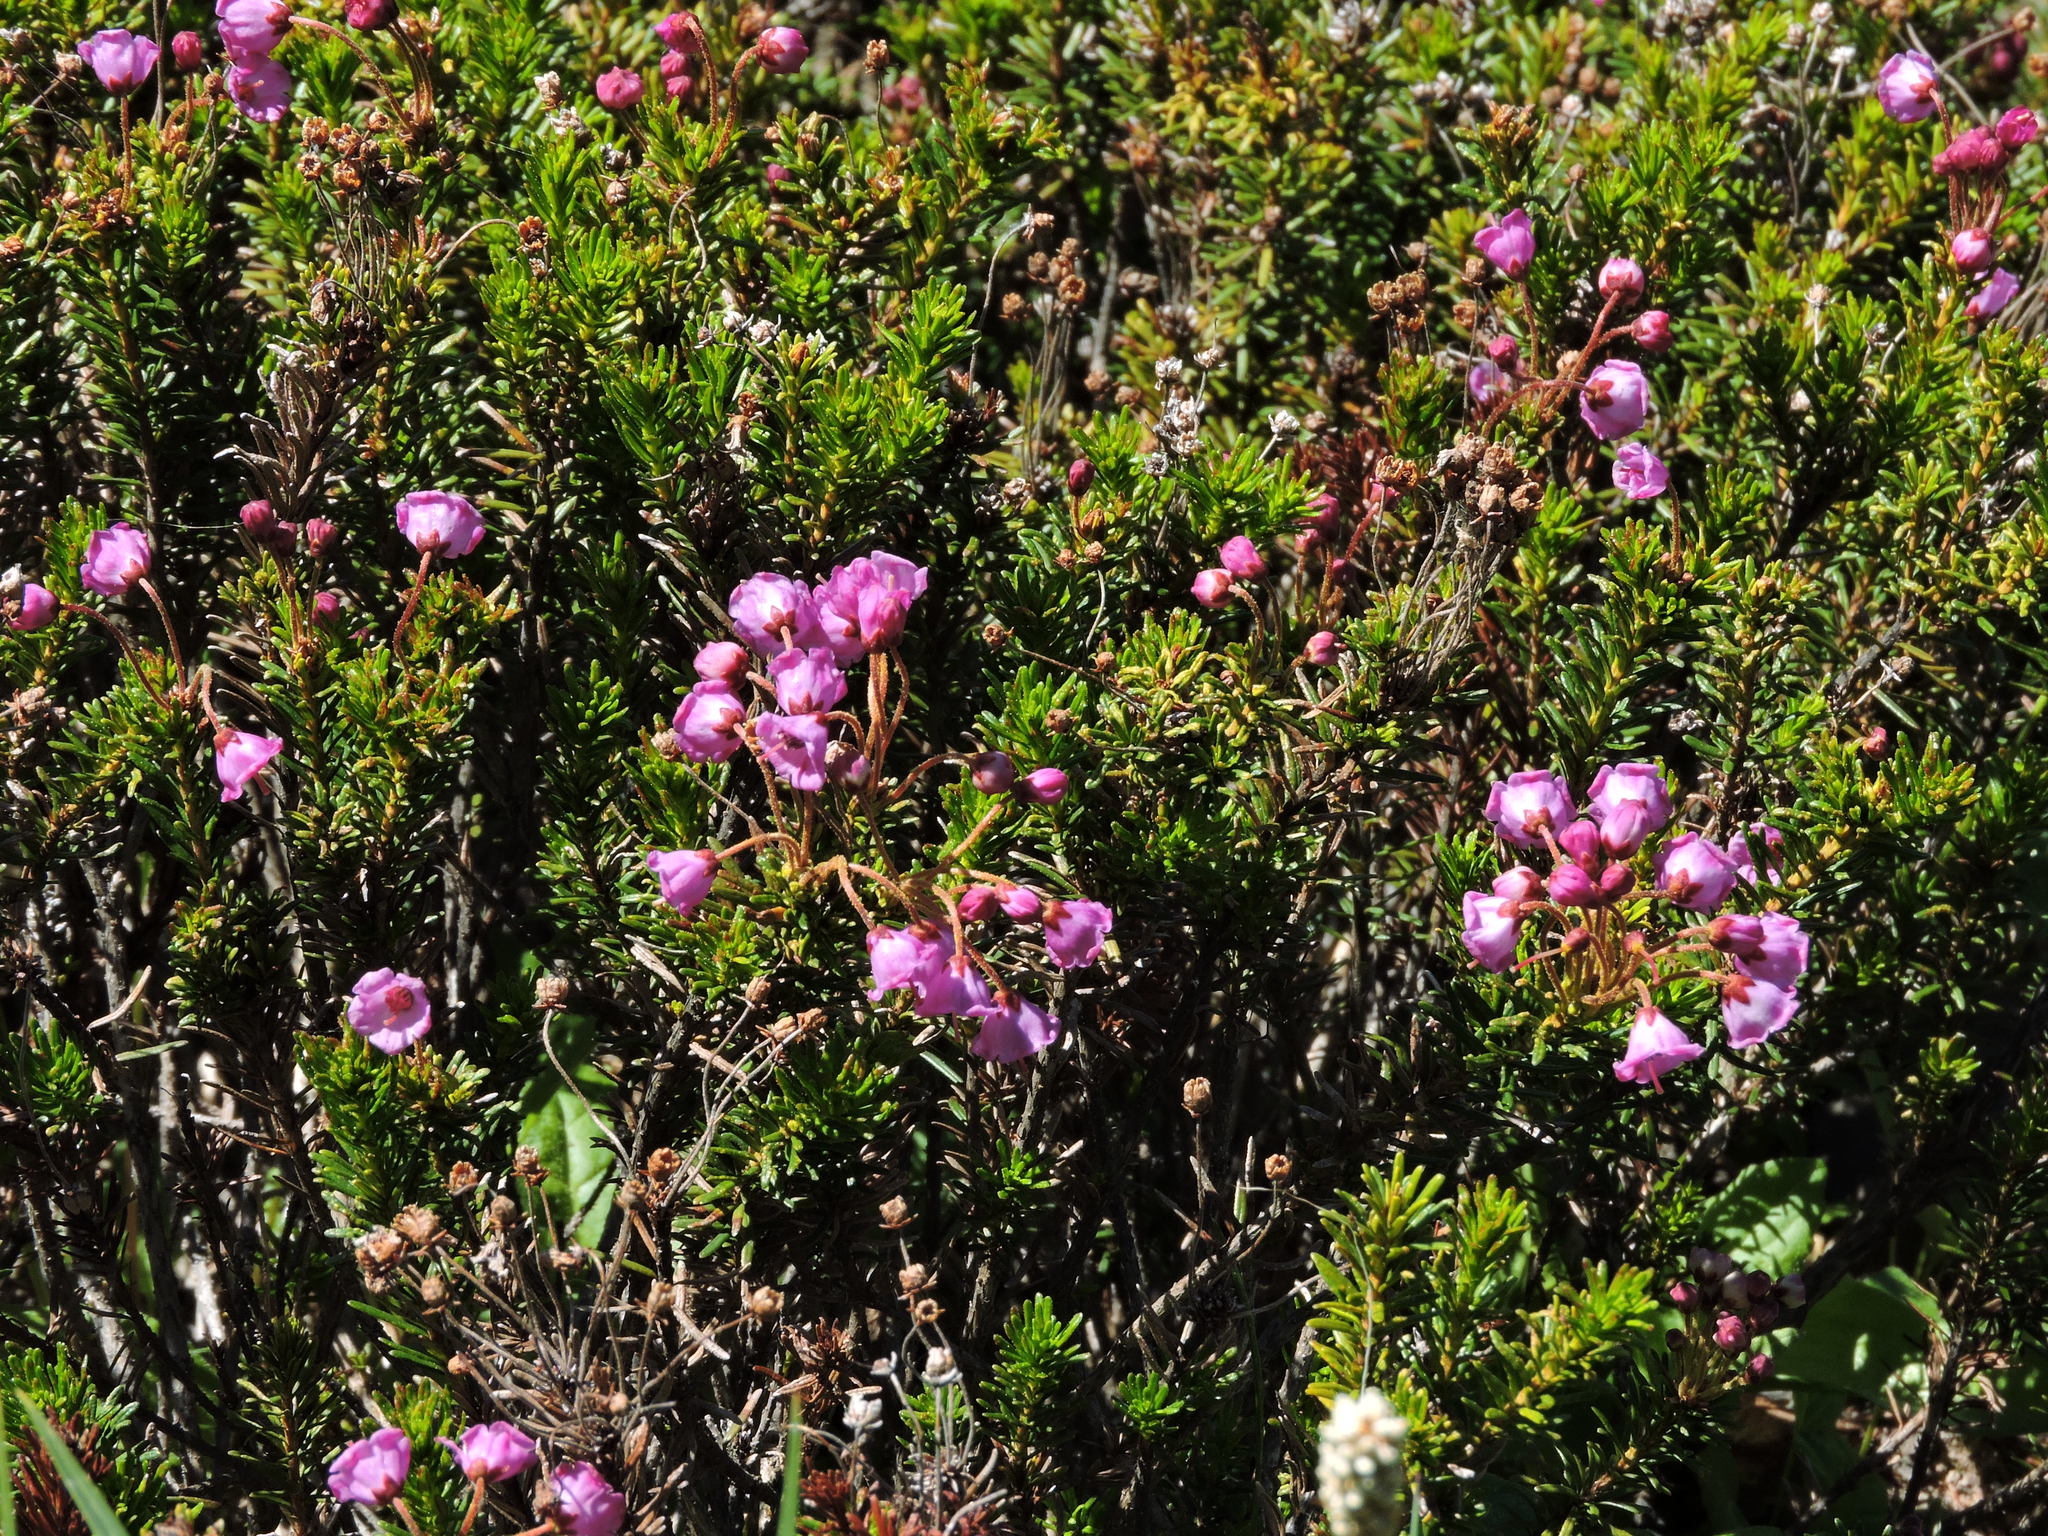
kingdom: Plantae
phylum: Tracheophyta
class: Magnoliopsida
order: Ericales
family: Ericaceae
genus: Phyllodoce
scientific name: Phyllodoce empetriformis
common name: Pink mountain heather
